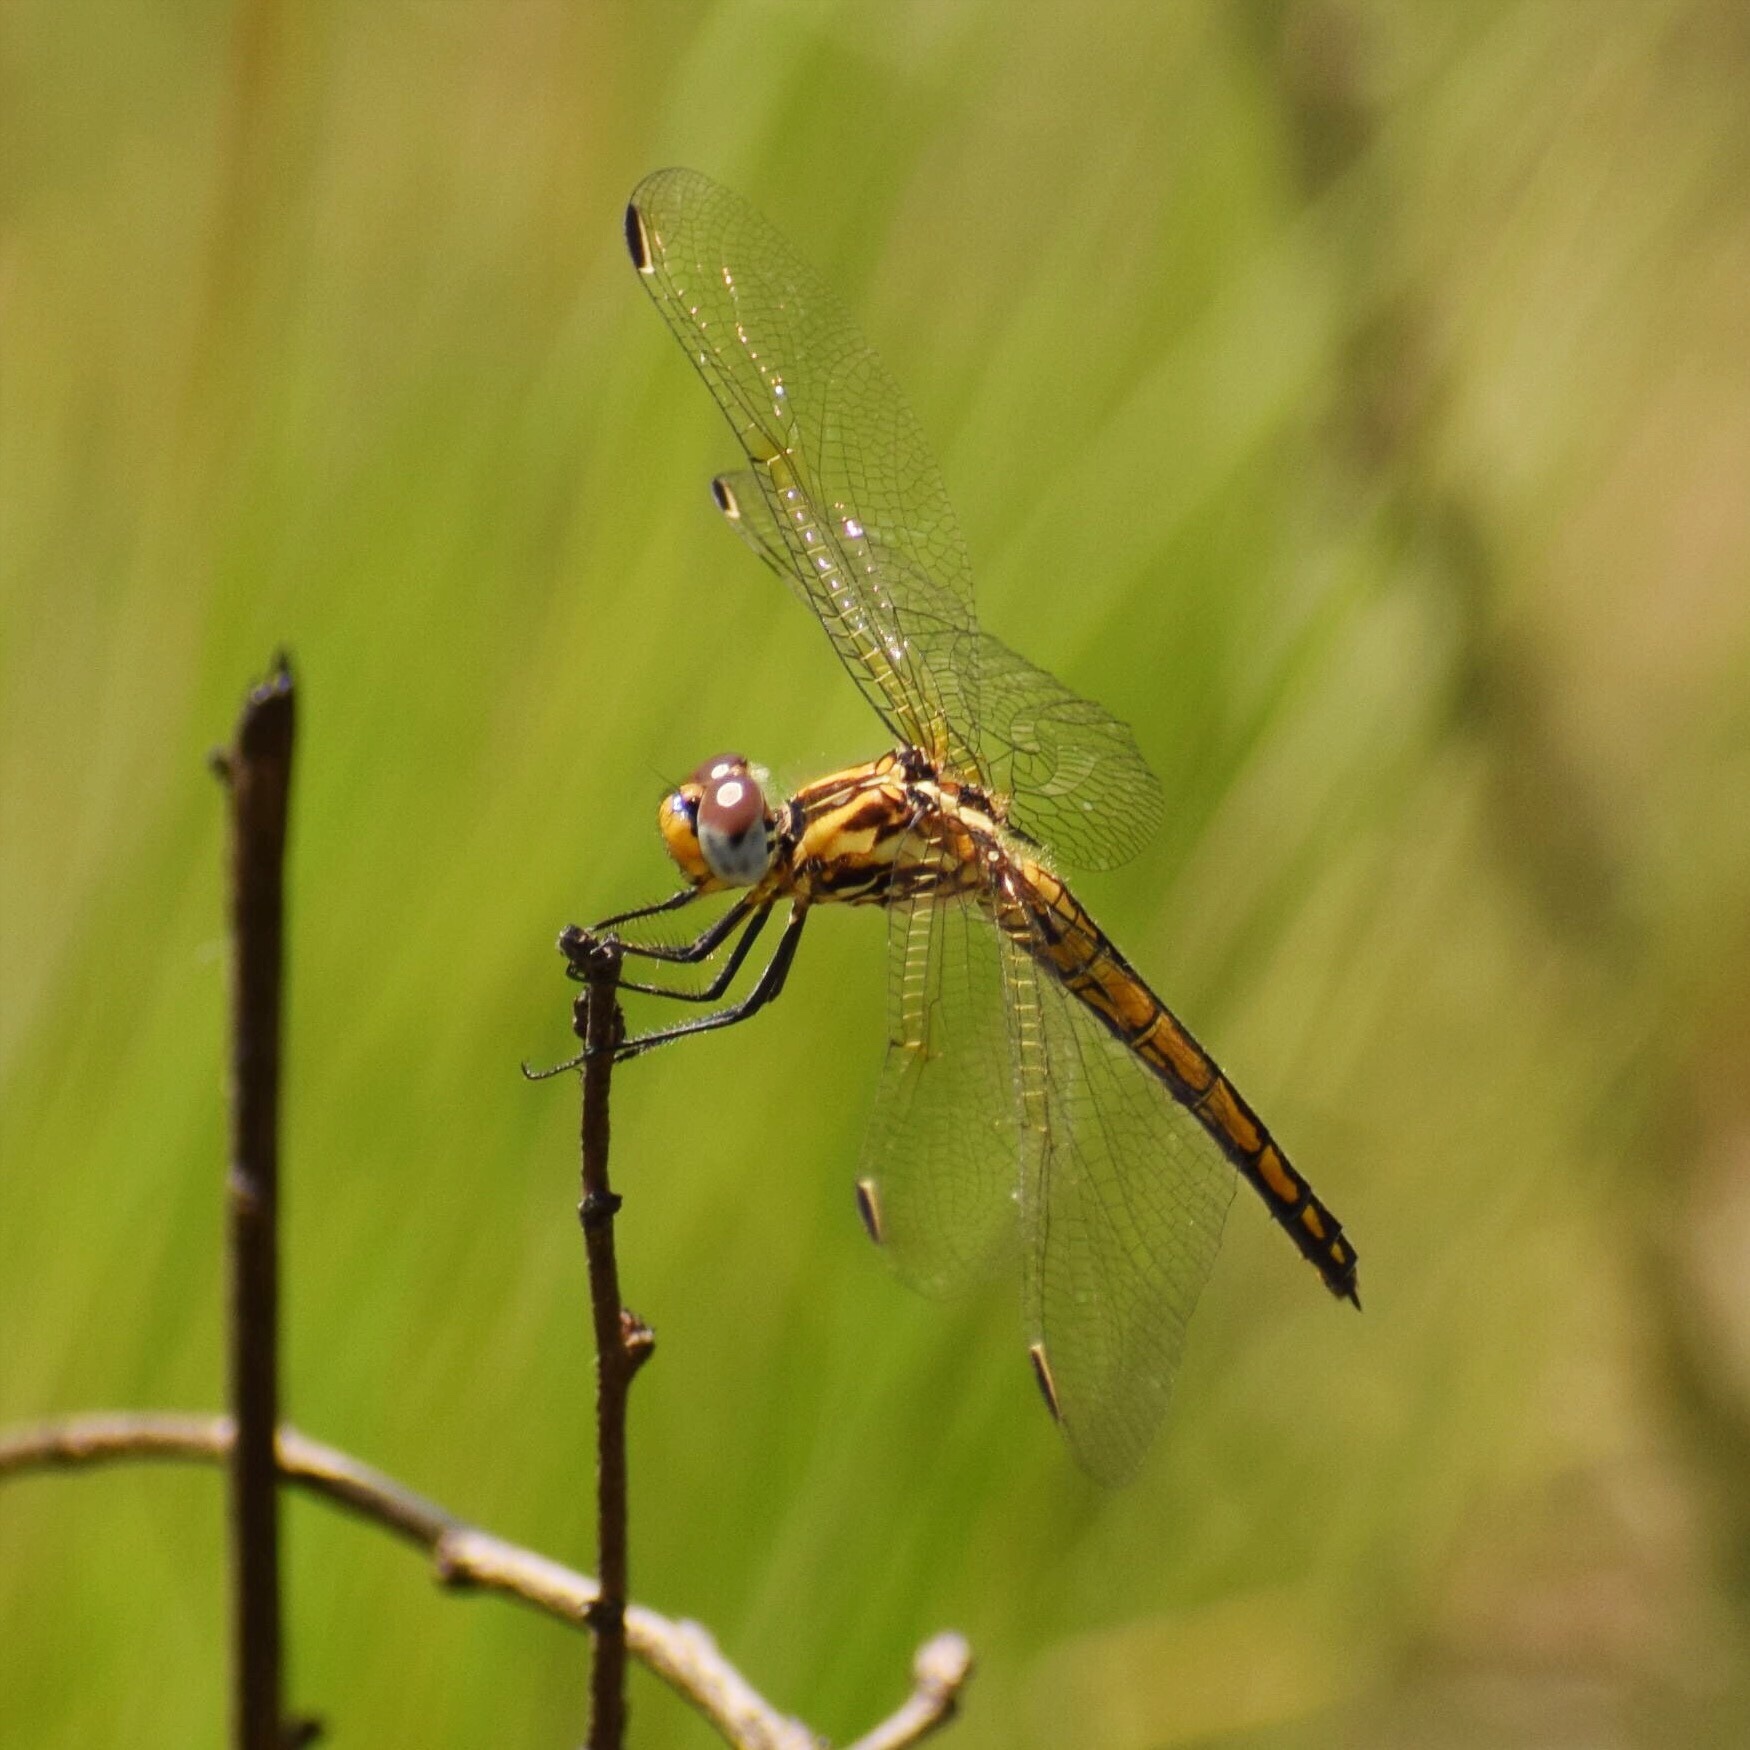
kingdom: Animalia
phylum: Arthropoda
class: Insecta
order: Odonata
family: Libellulidae
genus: Trithemis
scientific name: Trithemis furva
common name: Dark dropwing
